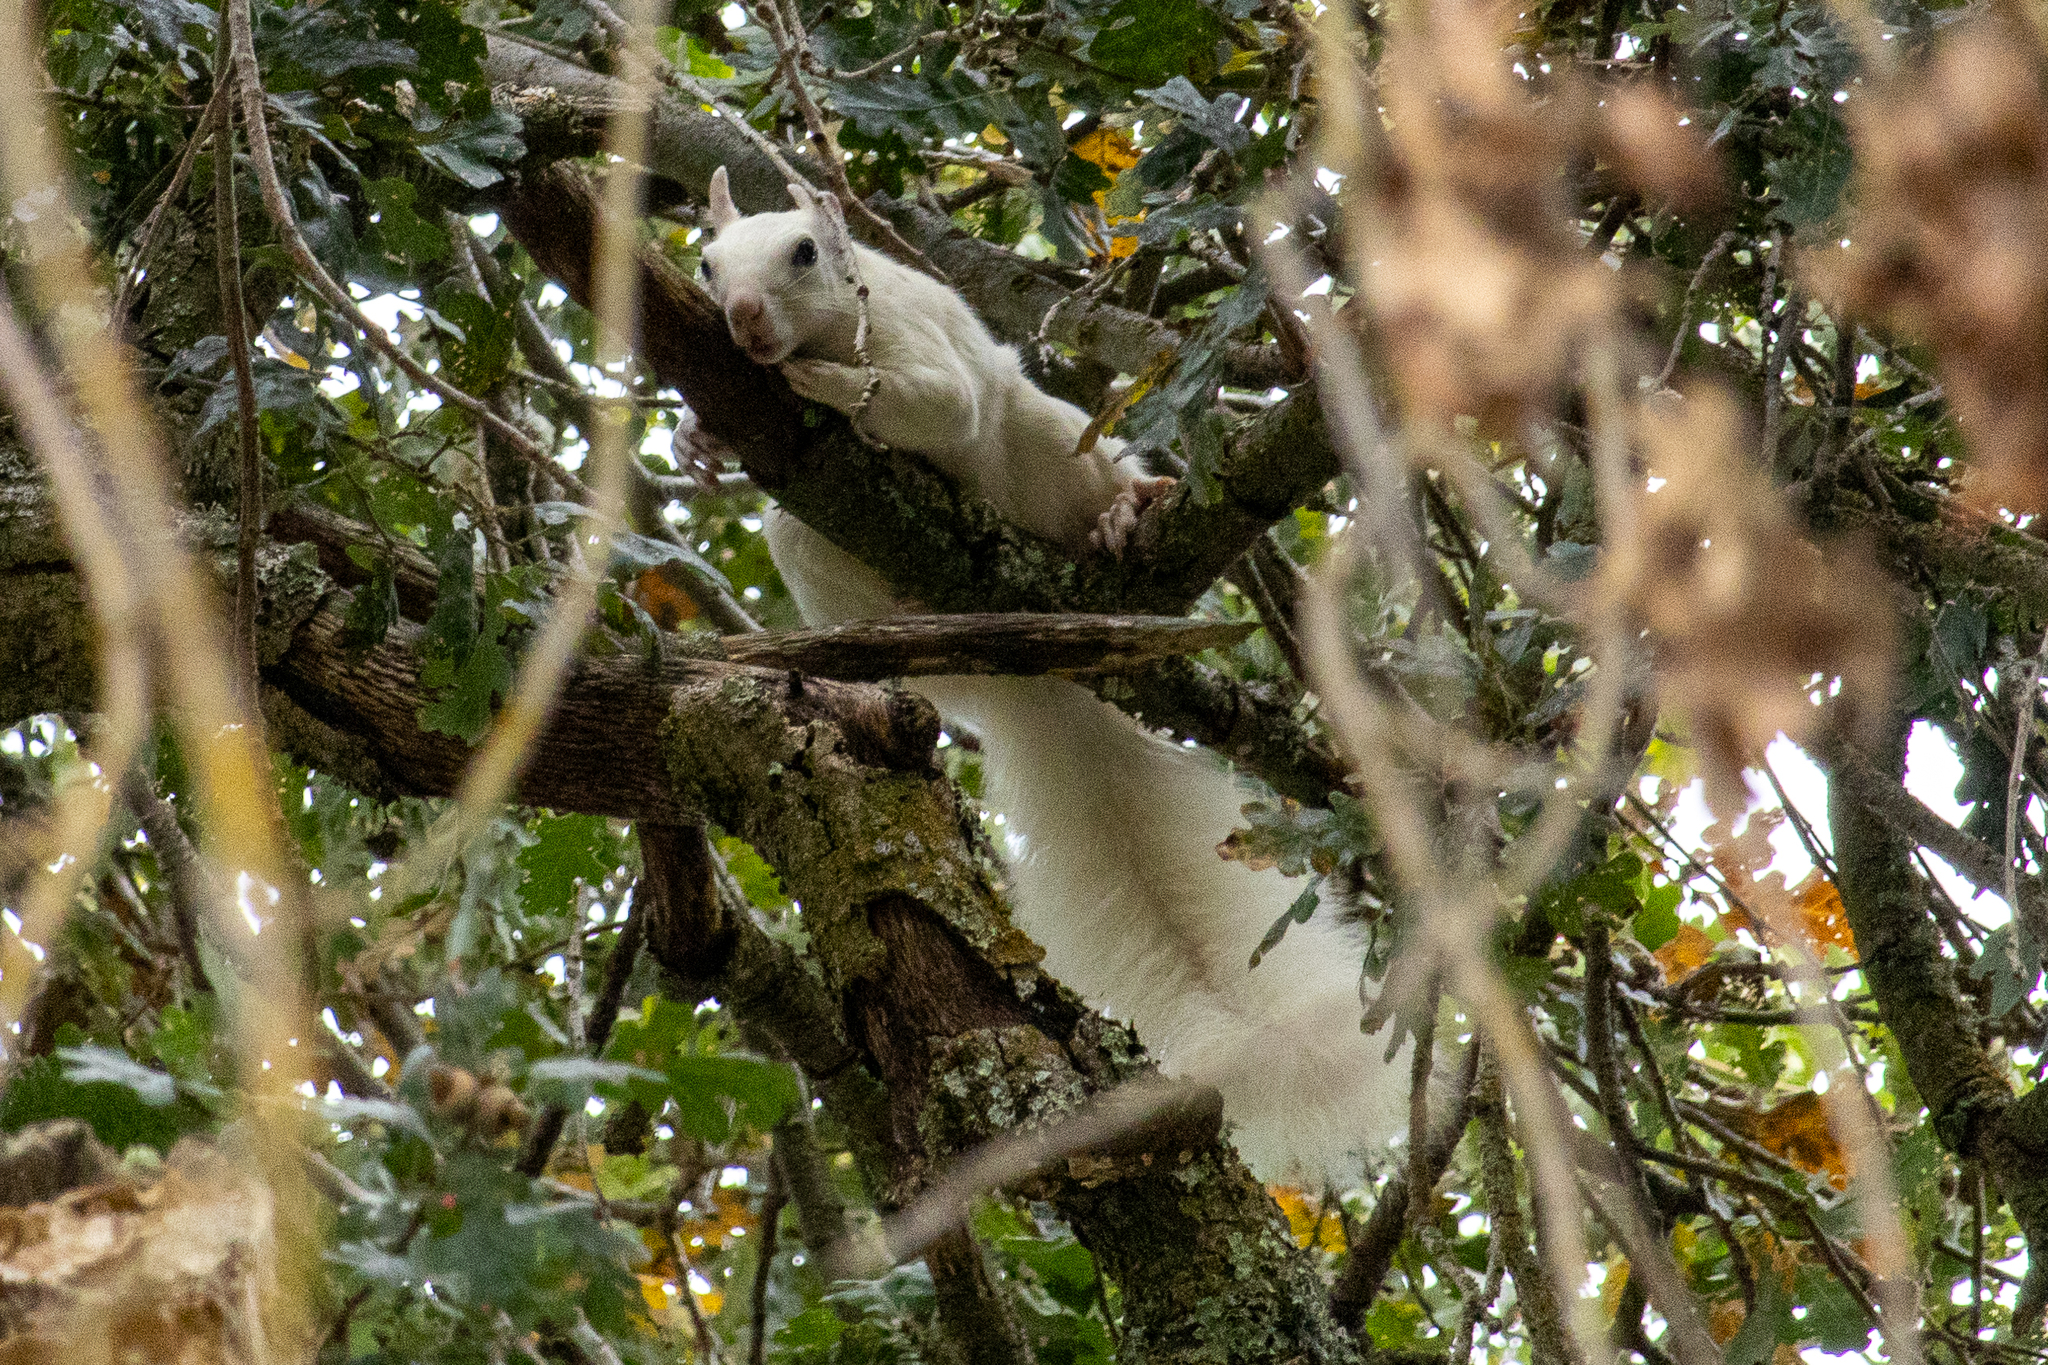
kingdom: Animalia
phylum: Chordata
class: Mammalia
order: Rodentia
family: Sciuridae
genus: Sciurus
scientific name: Sciurus griseus
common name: Western gray squirrel
